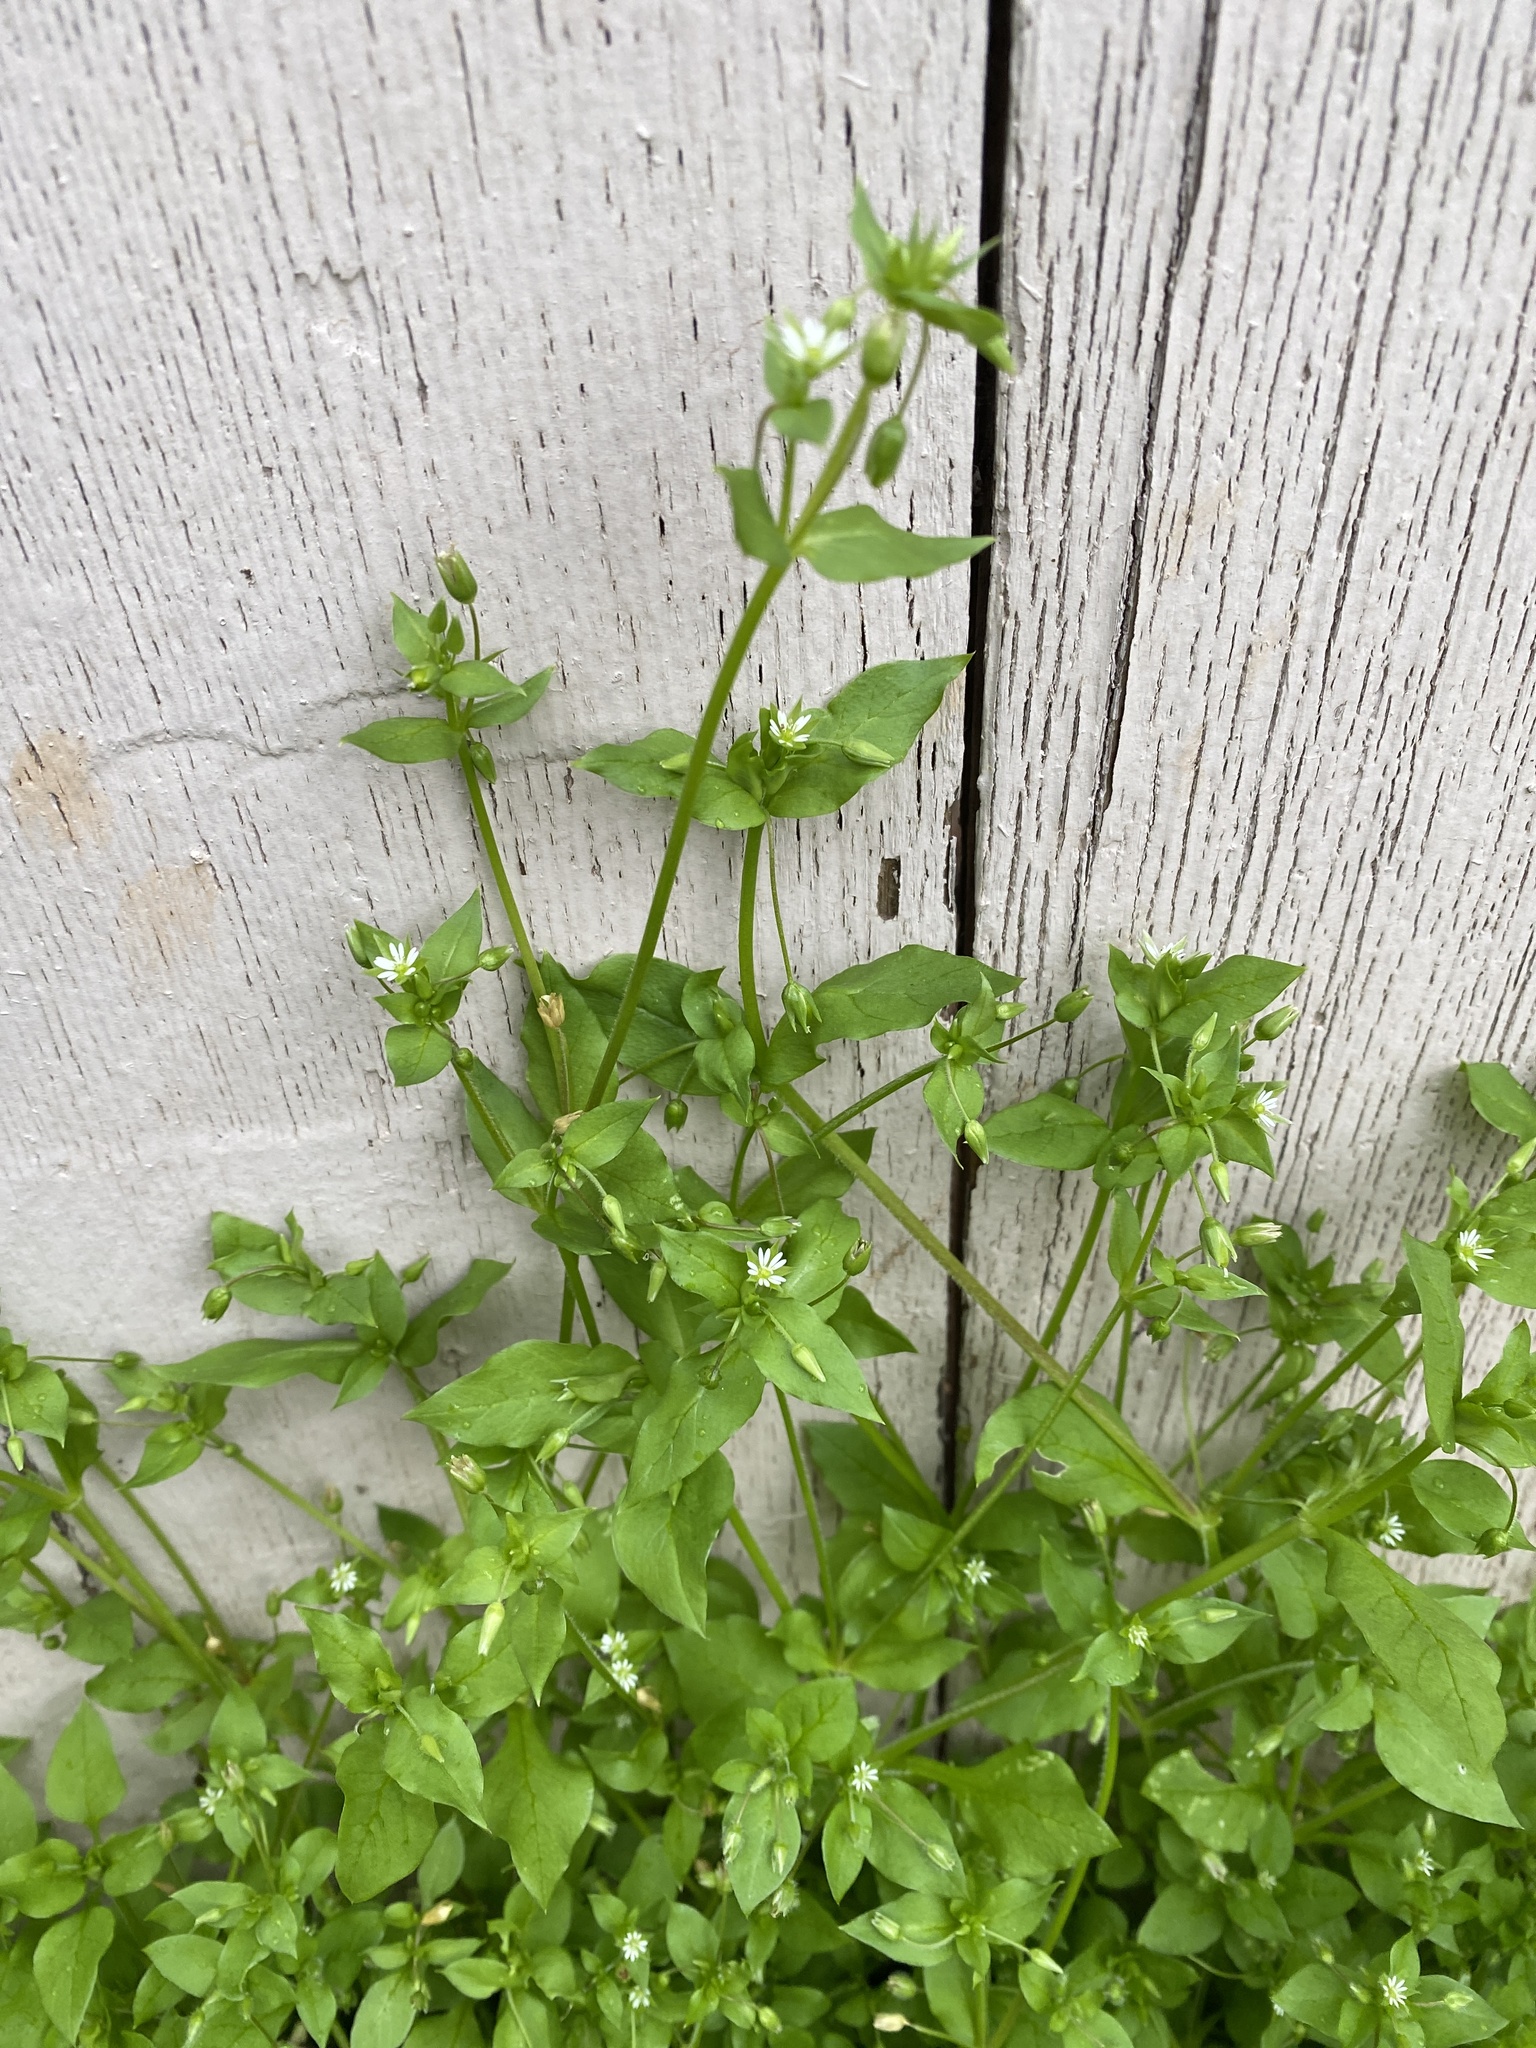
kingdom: Plantae
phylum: Tracheophyta
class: Magnoliopsida
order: Caryophyllales
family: Caryophyllaceae
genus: Stellaria
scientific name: Stellaria media
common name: Common chickweed
